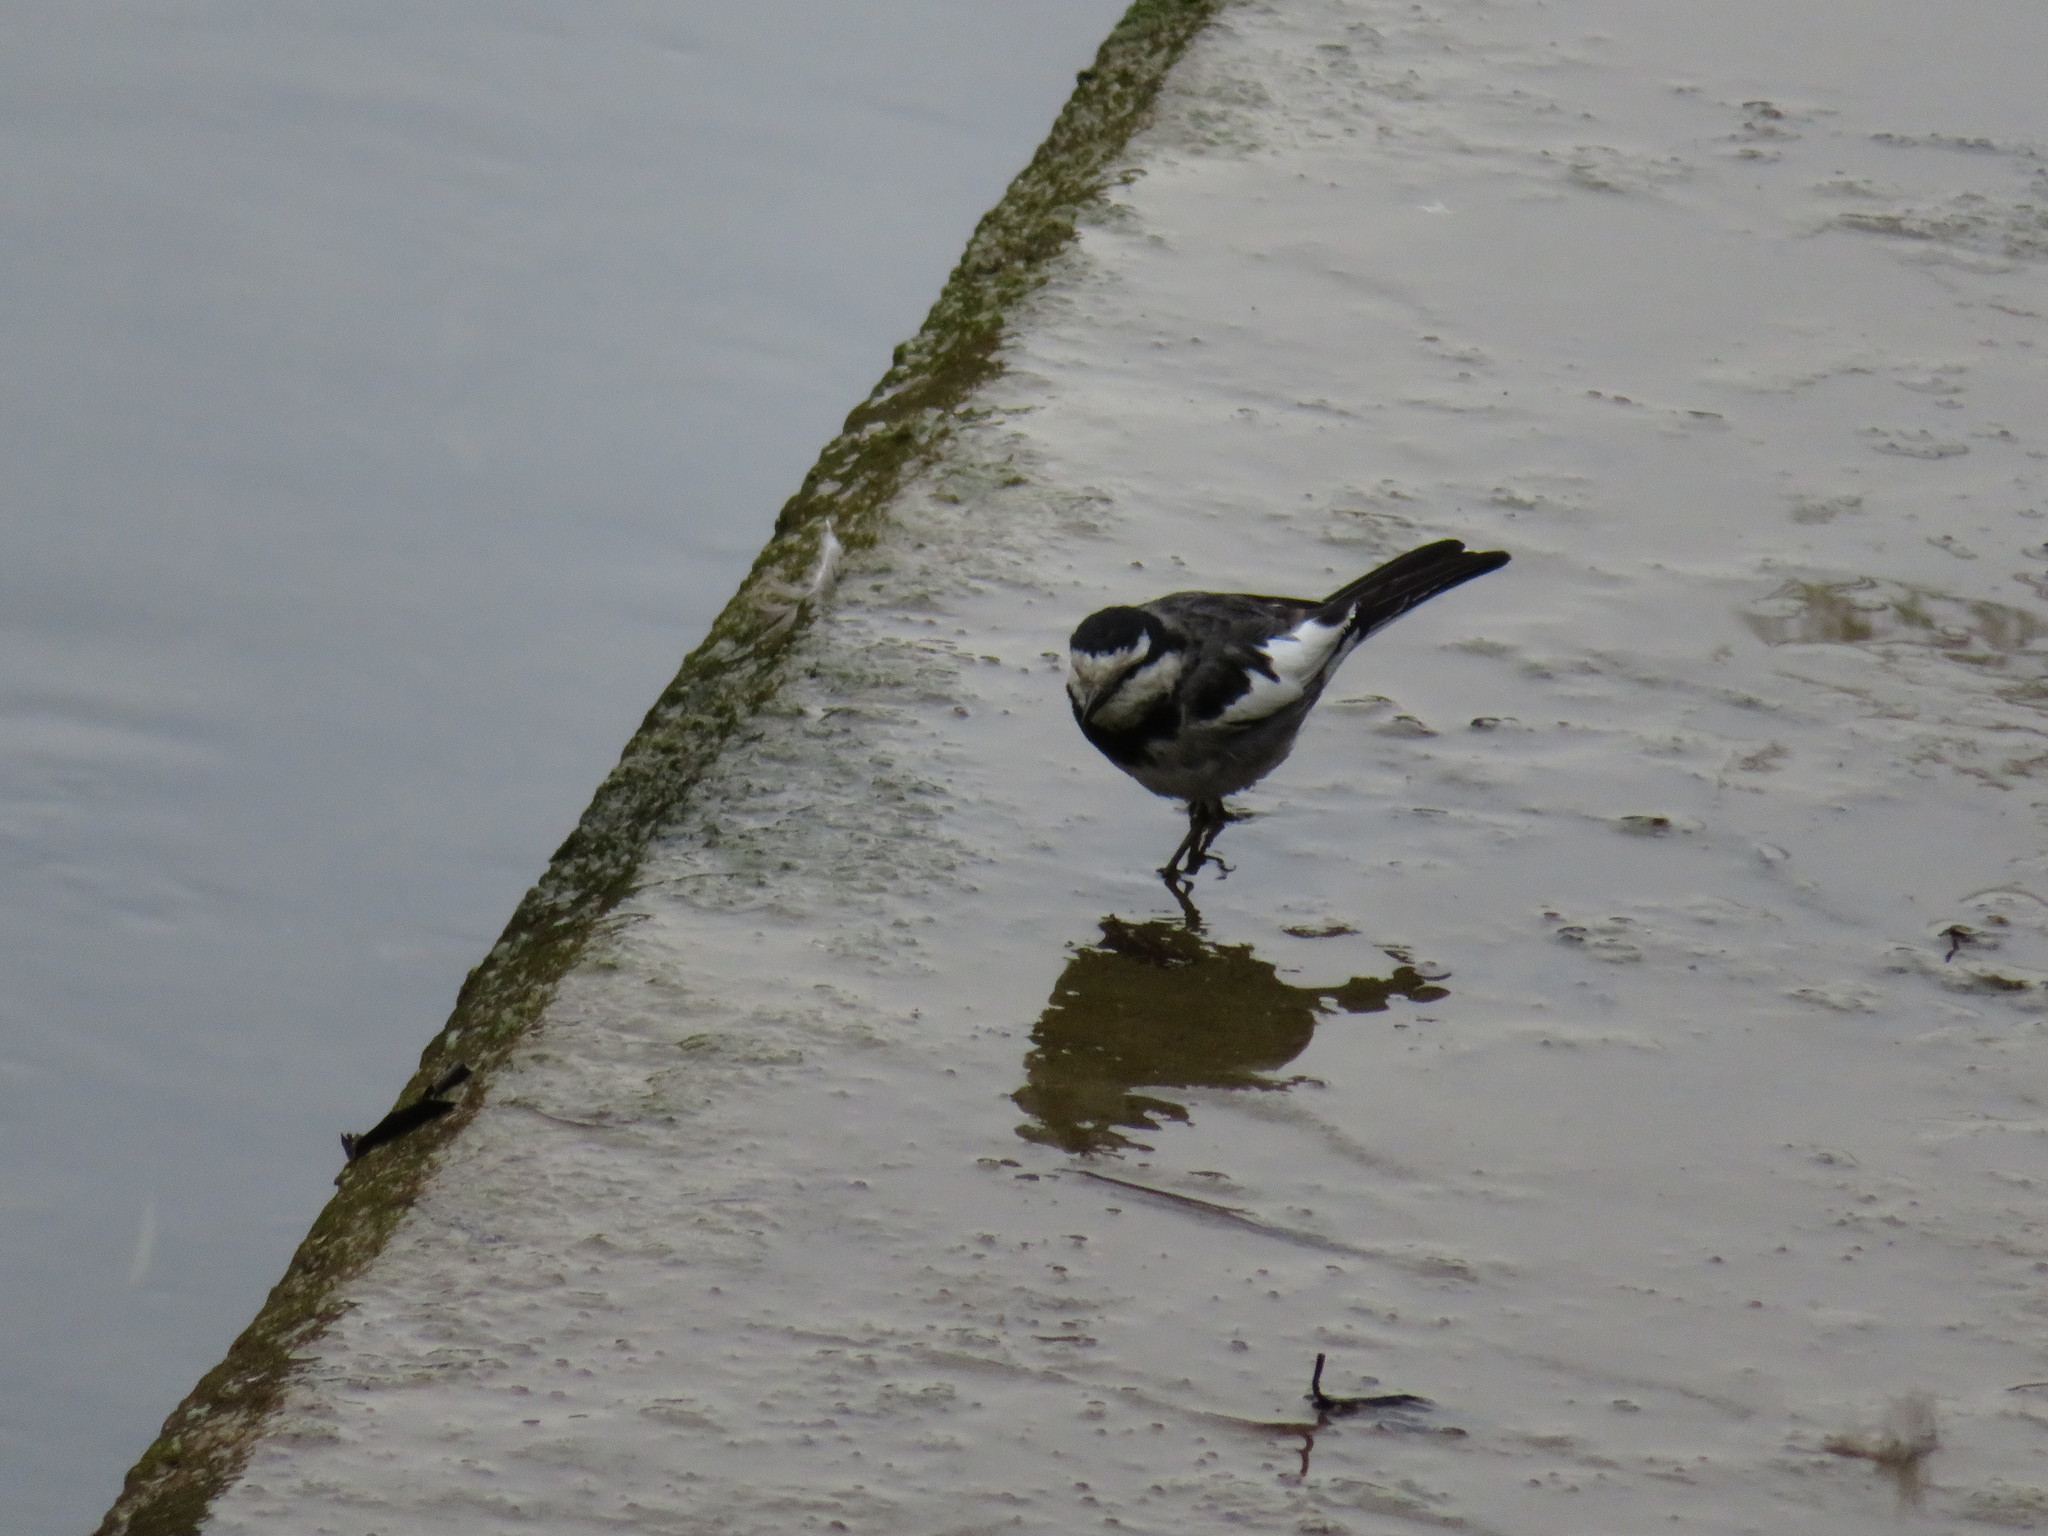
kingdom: Animalia
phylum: Chordata
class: Aves
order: Passeriformes
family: Motacillidae
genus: Motacilla
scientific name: Motacilla alba
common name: White wagtail
